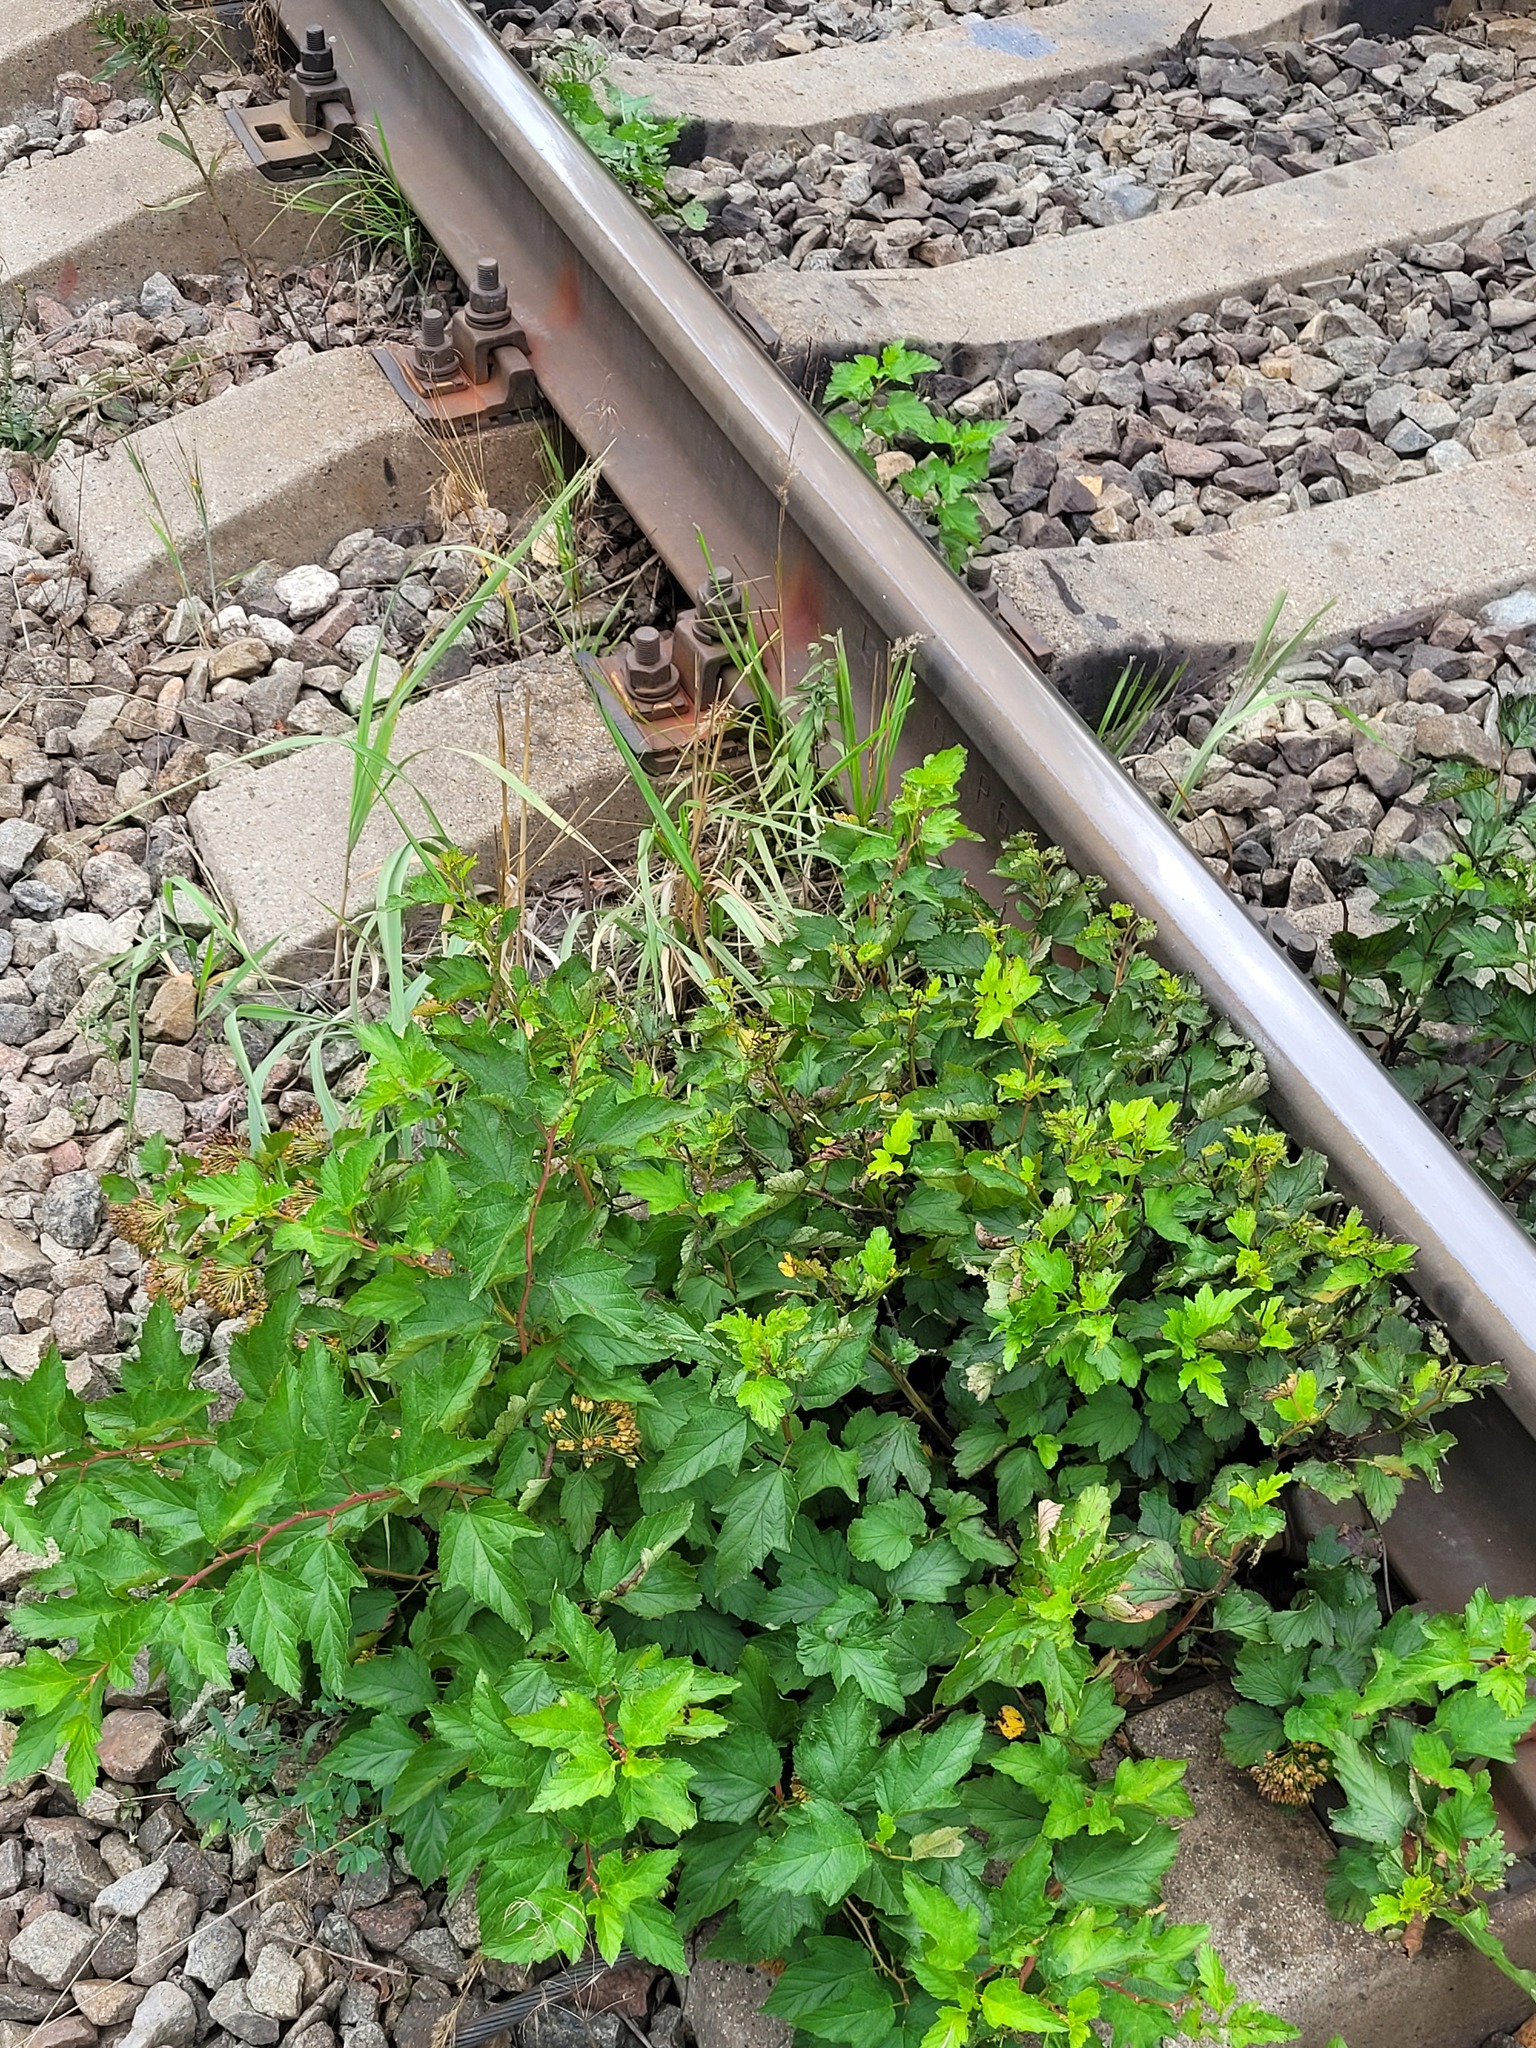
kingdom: Plantae
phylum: Tracheophyta
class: Magnoliopsida
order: Rosales
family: Rosaceae
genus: Physocarpus
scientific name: Physocarpus opulifolius
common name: Ninebark
